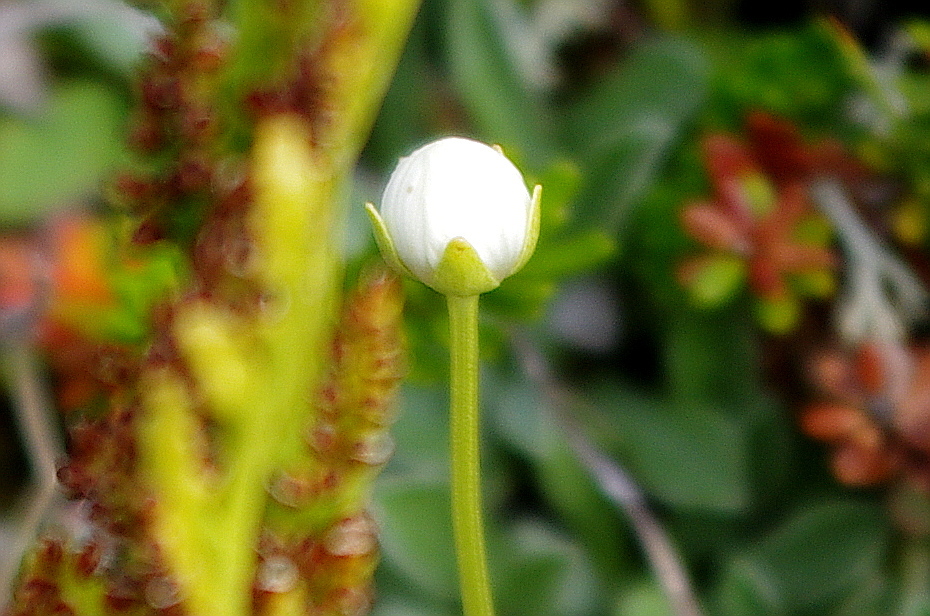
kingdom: Plantae
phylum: Tracheophyta
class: Magnoliopsida
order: Celastrales
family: Parnassiaceae
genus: Parnassia
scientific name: Parnassia palustris
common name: Grass-of-parnassus
